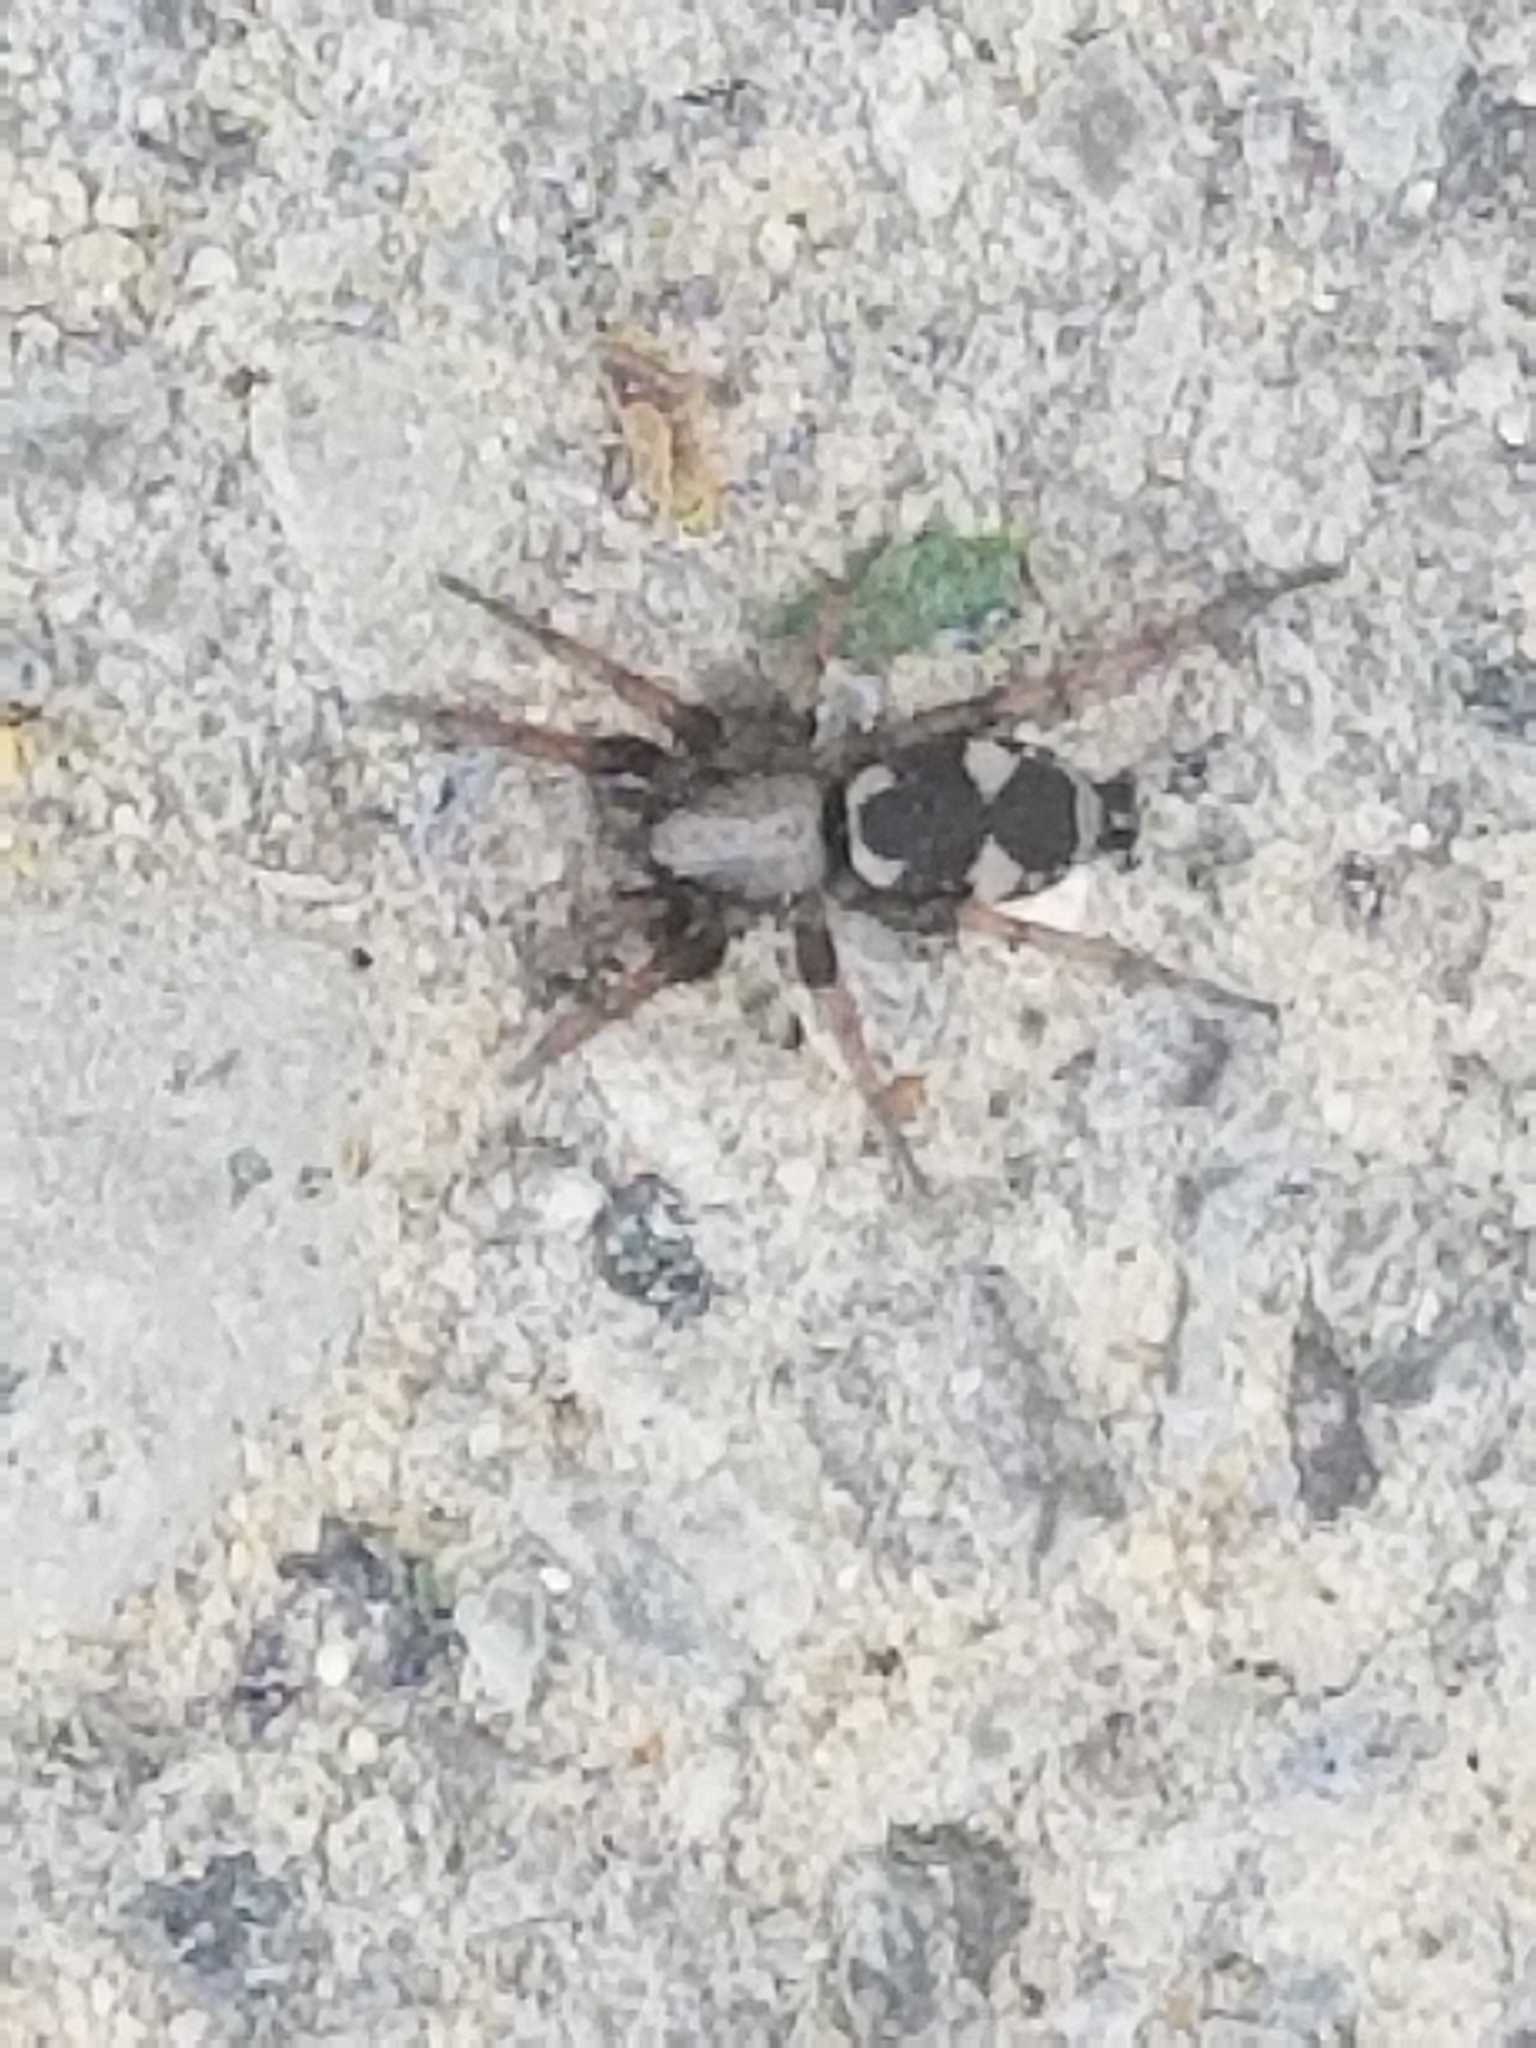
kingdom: Animalia
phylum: Arthropoda
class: Arachnida
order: Araneae
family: Gnaphosidae
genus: Sergiolus
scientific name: Sergiolus montanus
